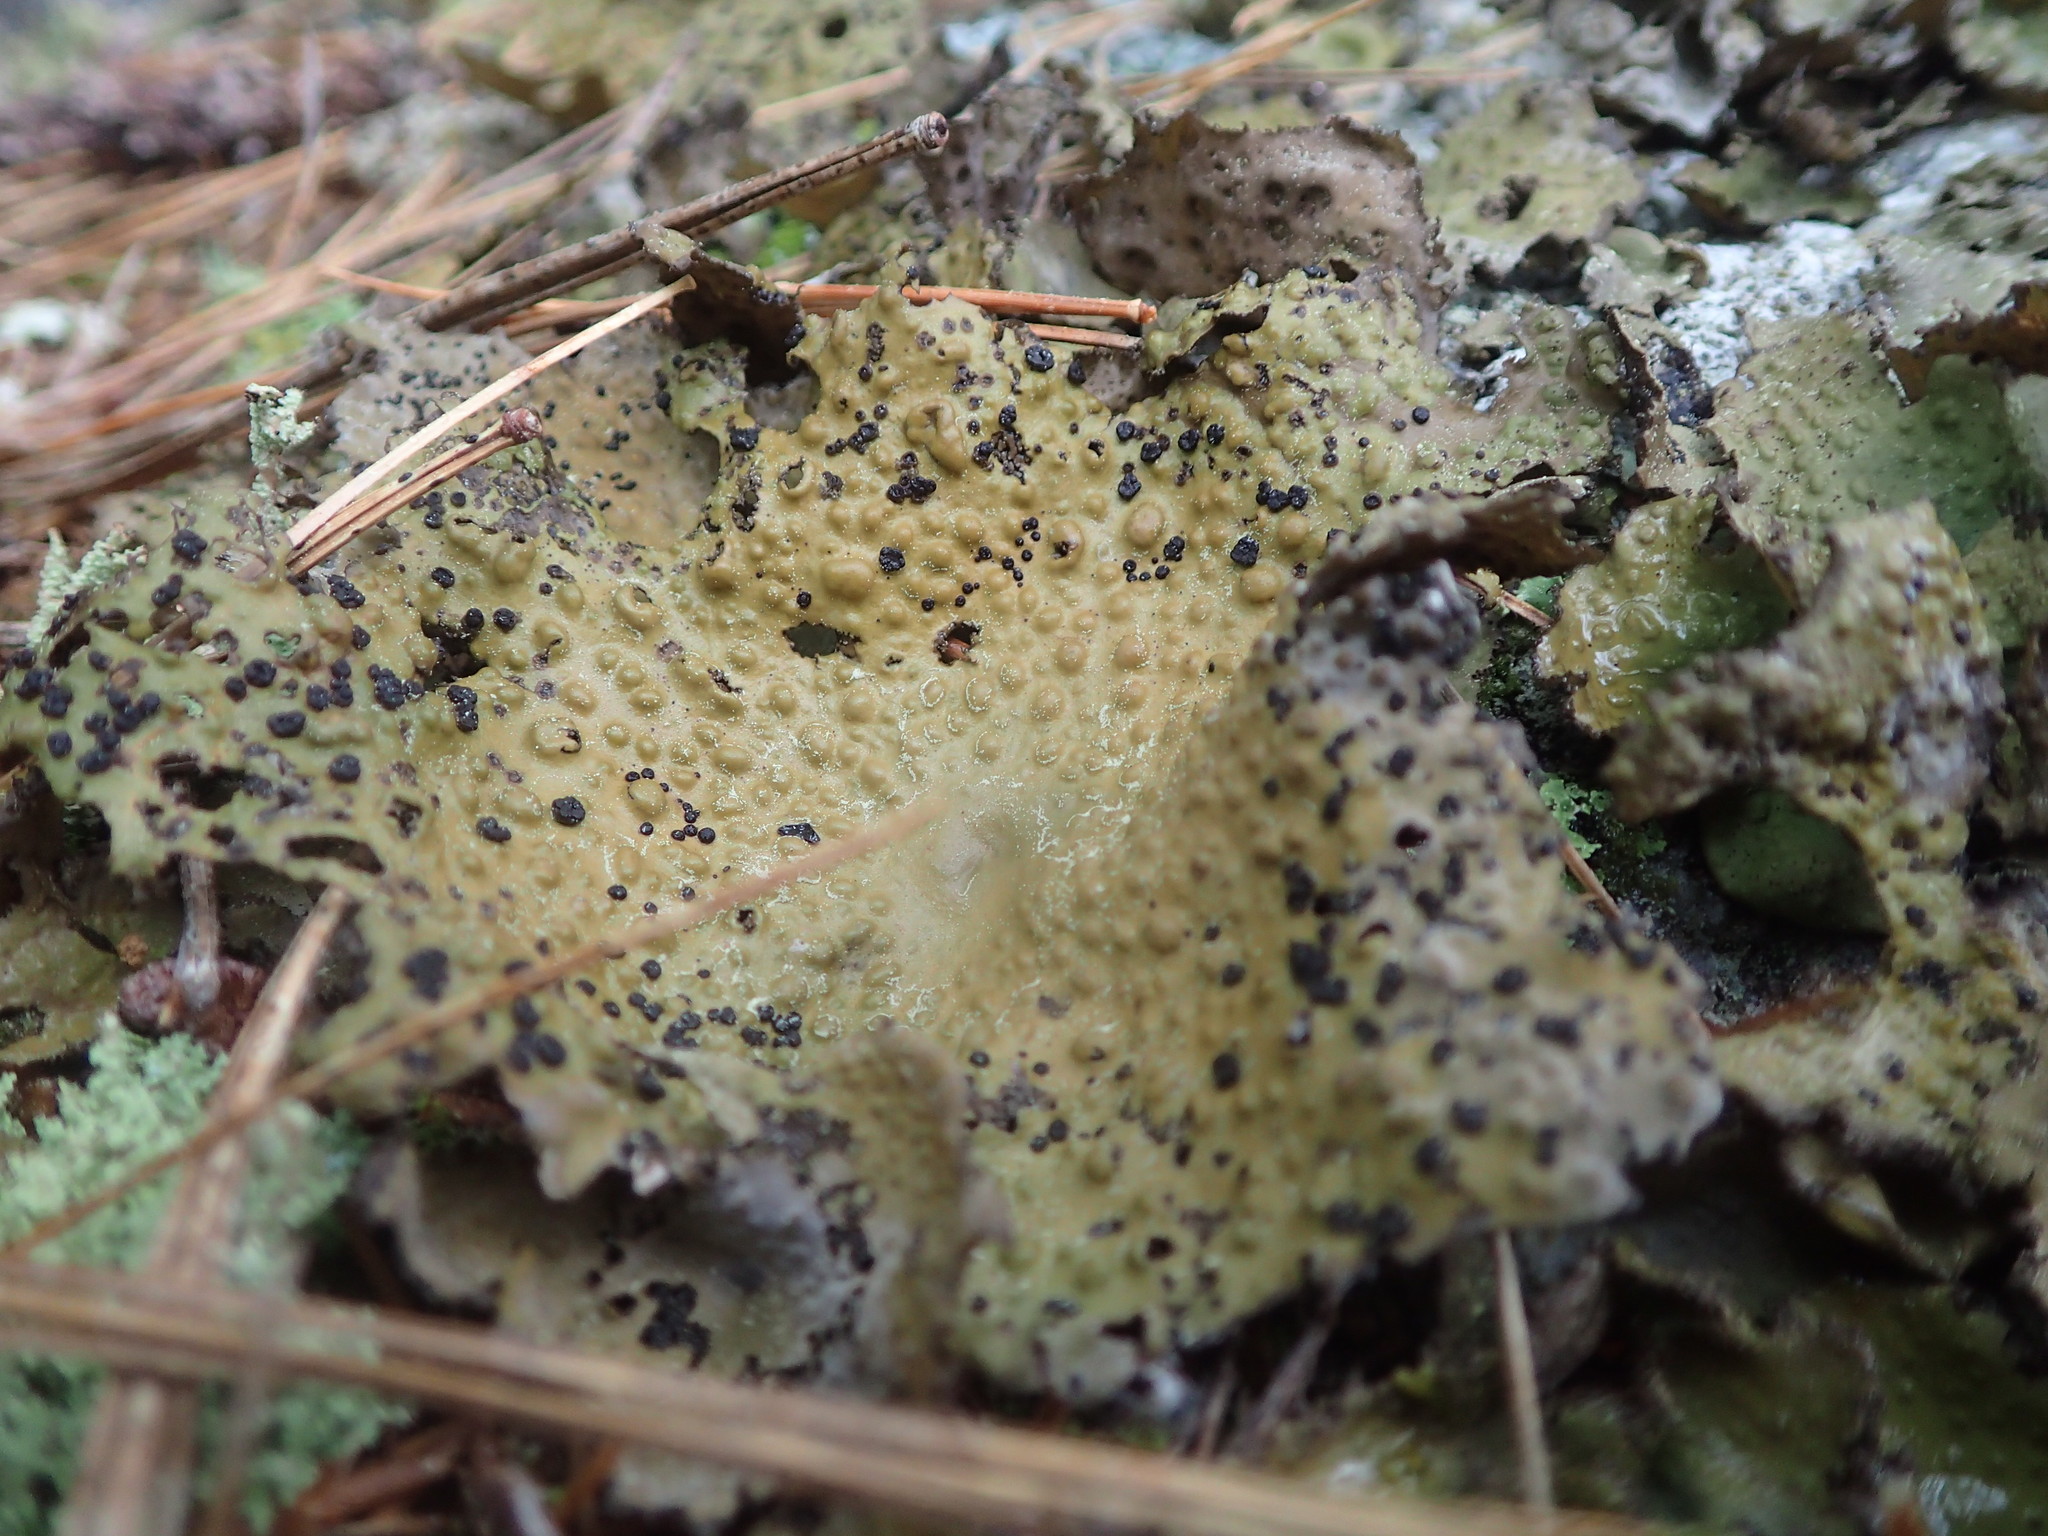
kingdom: Fungi
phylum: Ascomycota
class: Lecanoromycetes
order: Umbilicariales
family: Umbilicariaceae
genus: Lasallia
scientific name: Lasallia papulosa
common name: Common toadskin lichen
